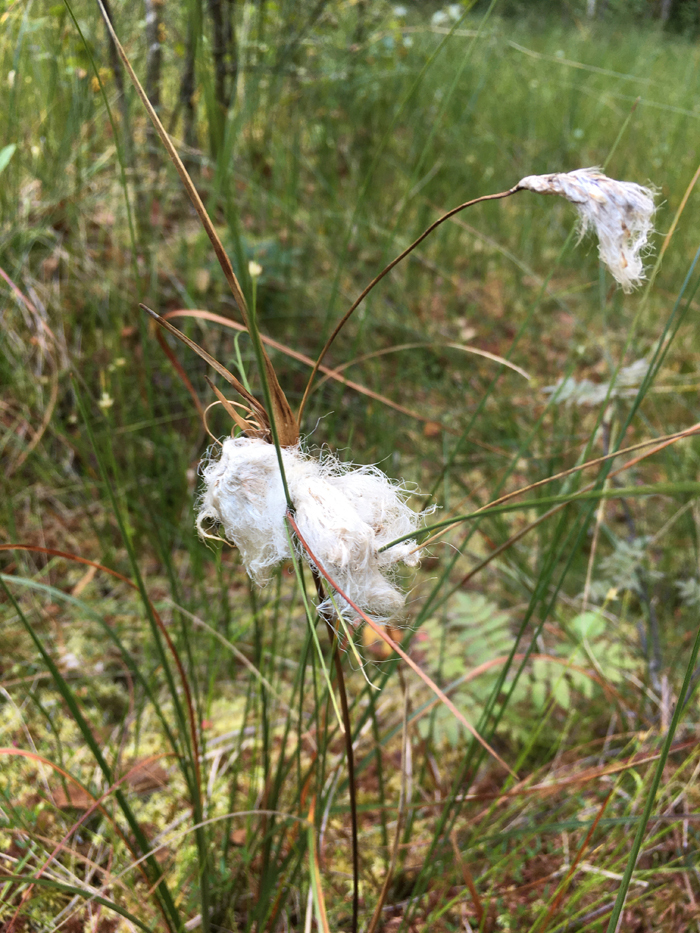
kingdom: Plantae
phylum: Tracheophyta
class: Liliopsida
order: Poales
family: Cyperaceae
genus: Eriophorum
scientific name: Eriophorum angustifolium
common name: Common cottongrass
